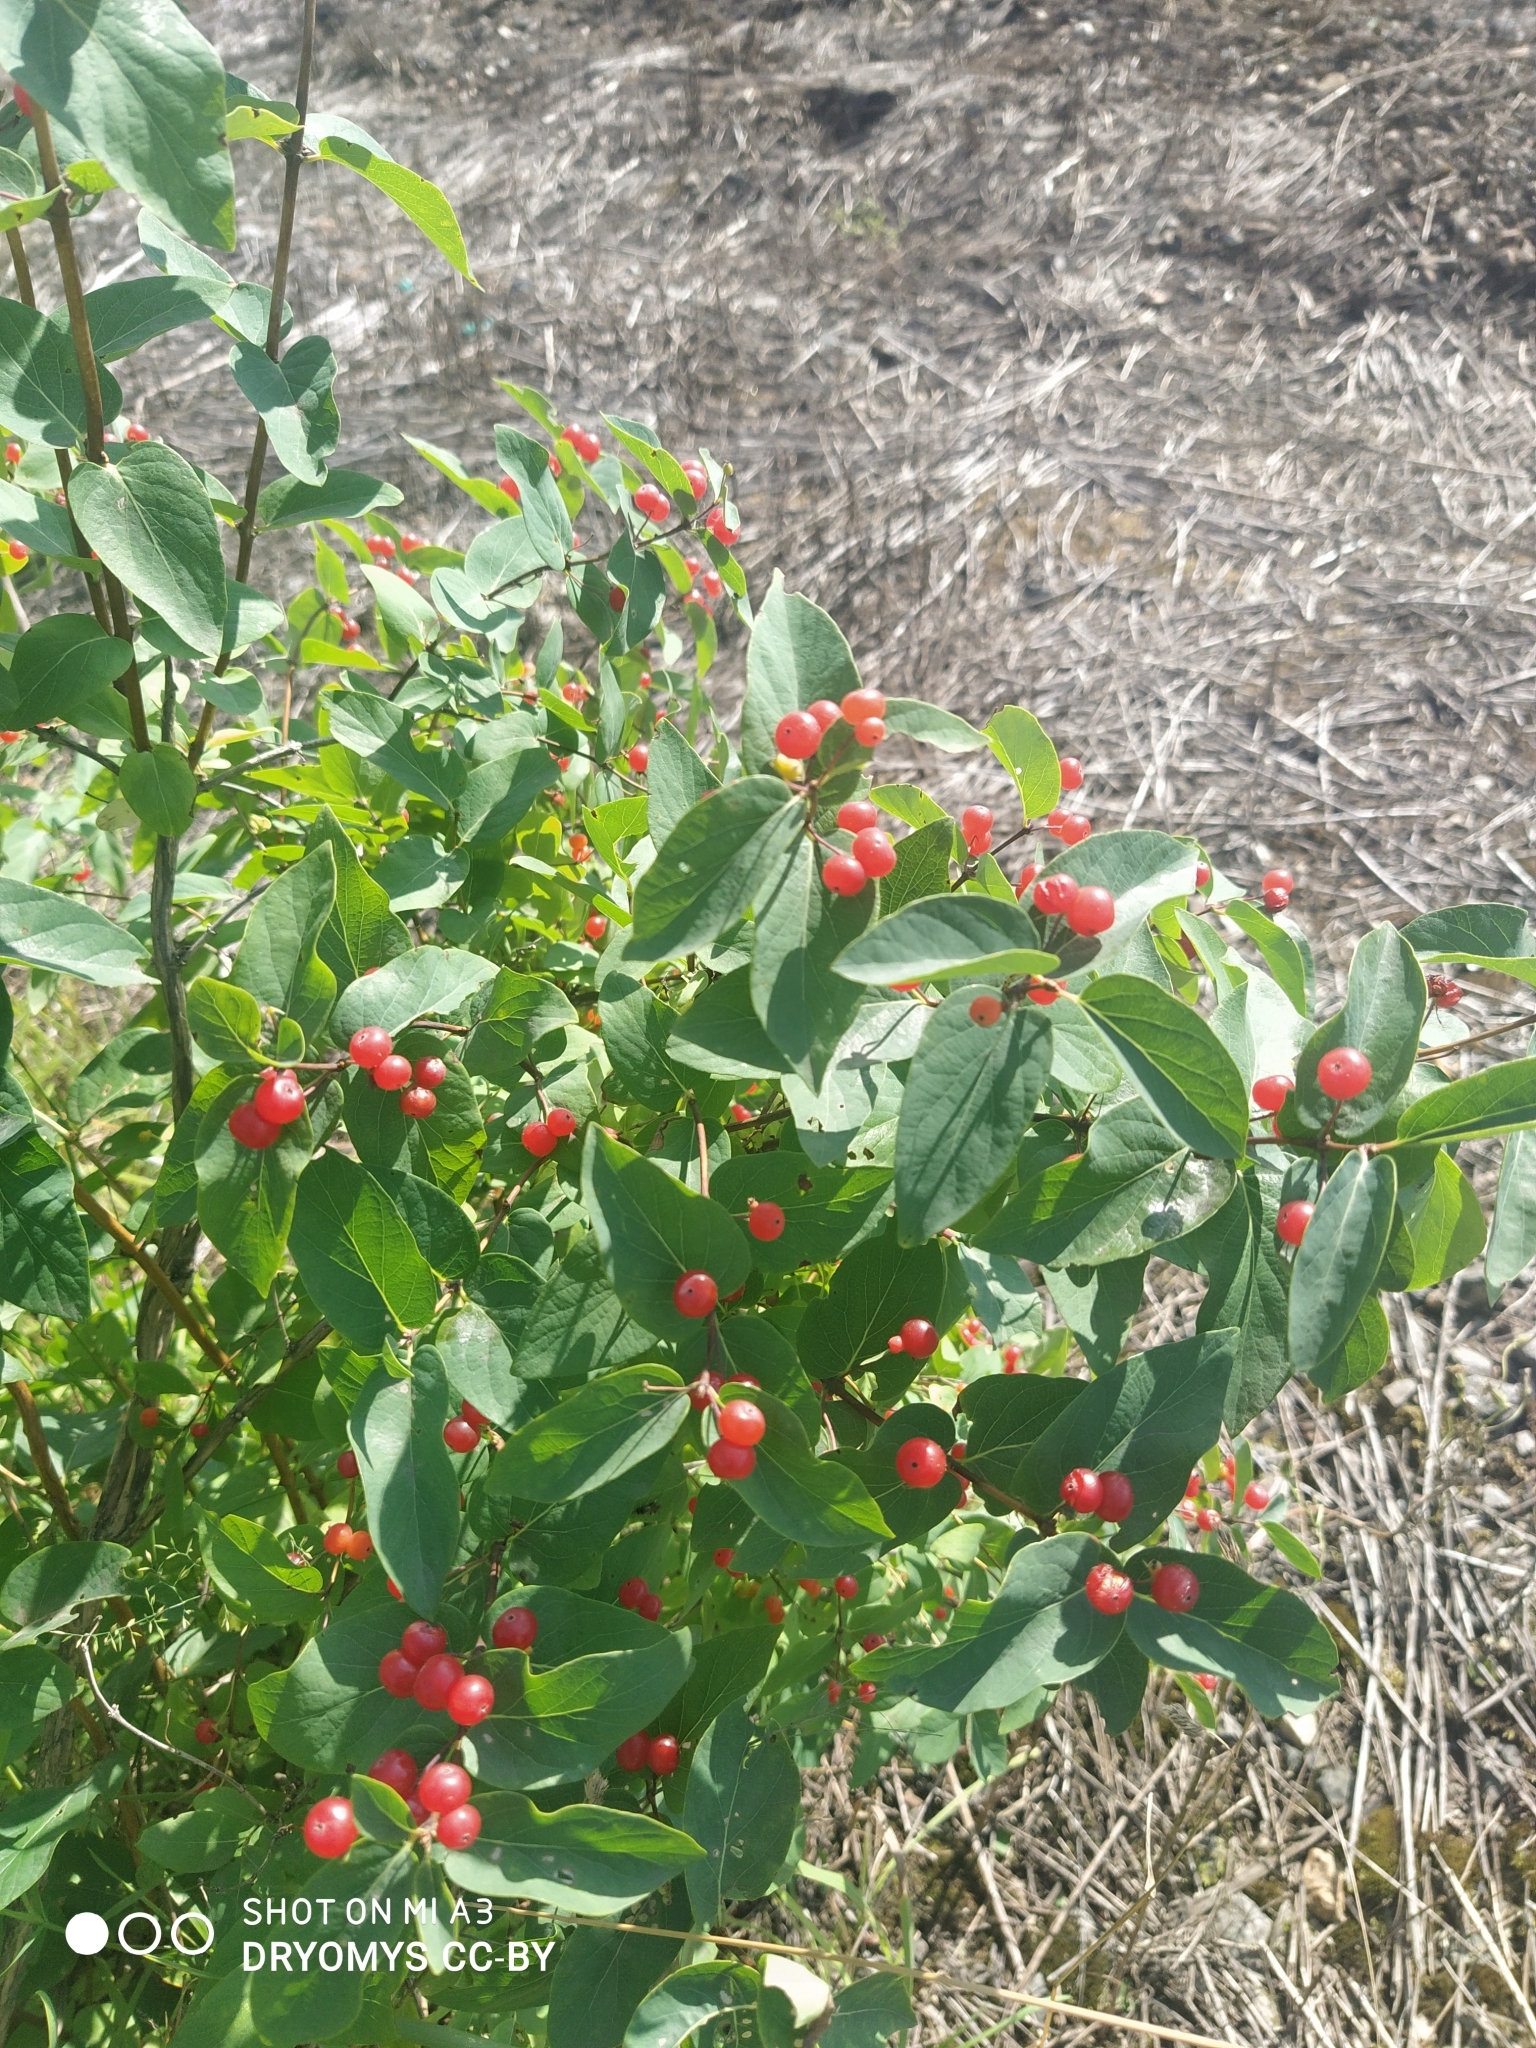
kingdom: Plantae
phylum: Tracheophyta
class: Magnoliopsida
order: Dipsacales
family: Caprifoliaceae
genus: Lonicera
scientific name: Lonicera tatarica
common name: Tatarian honeysuckle
